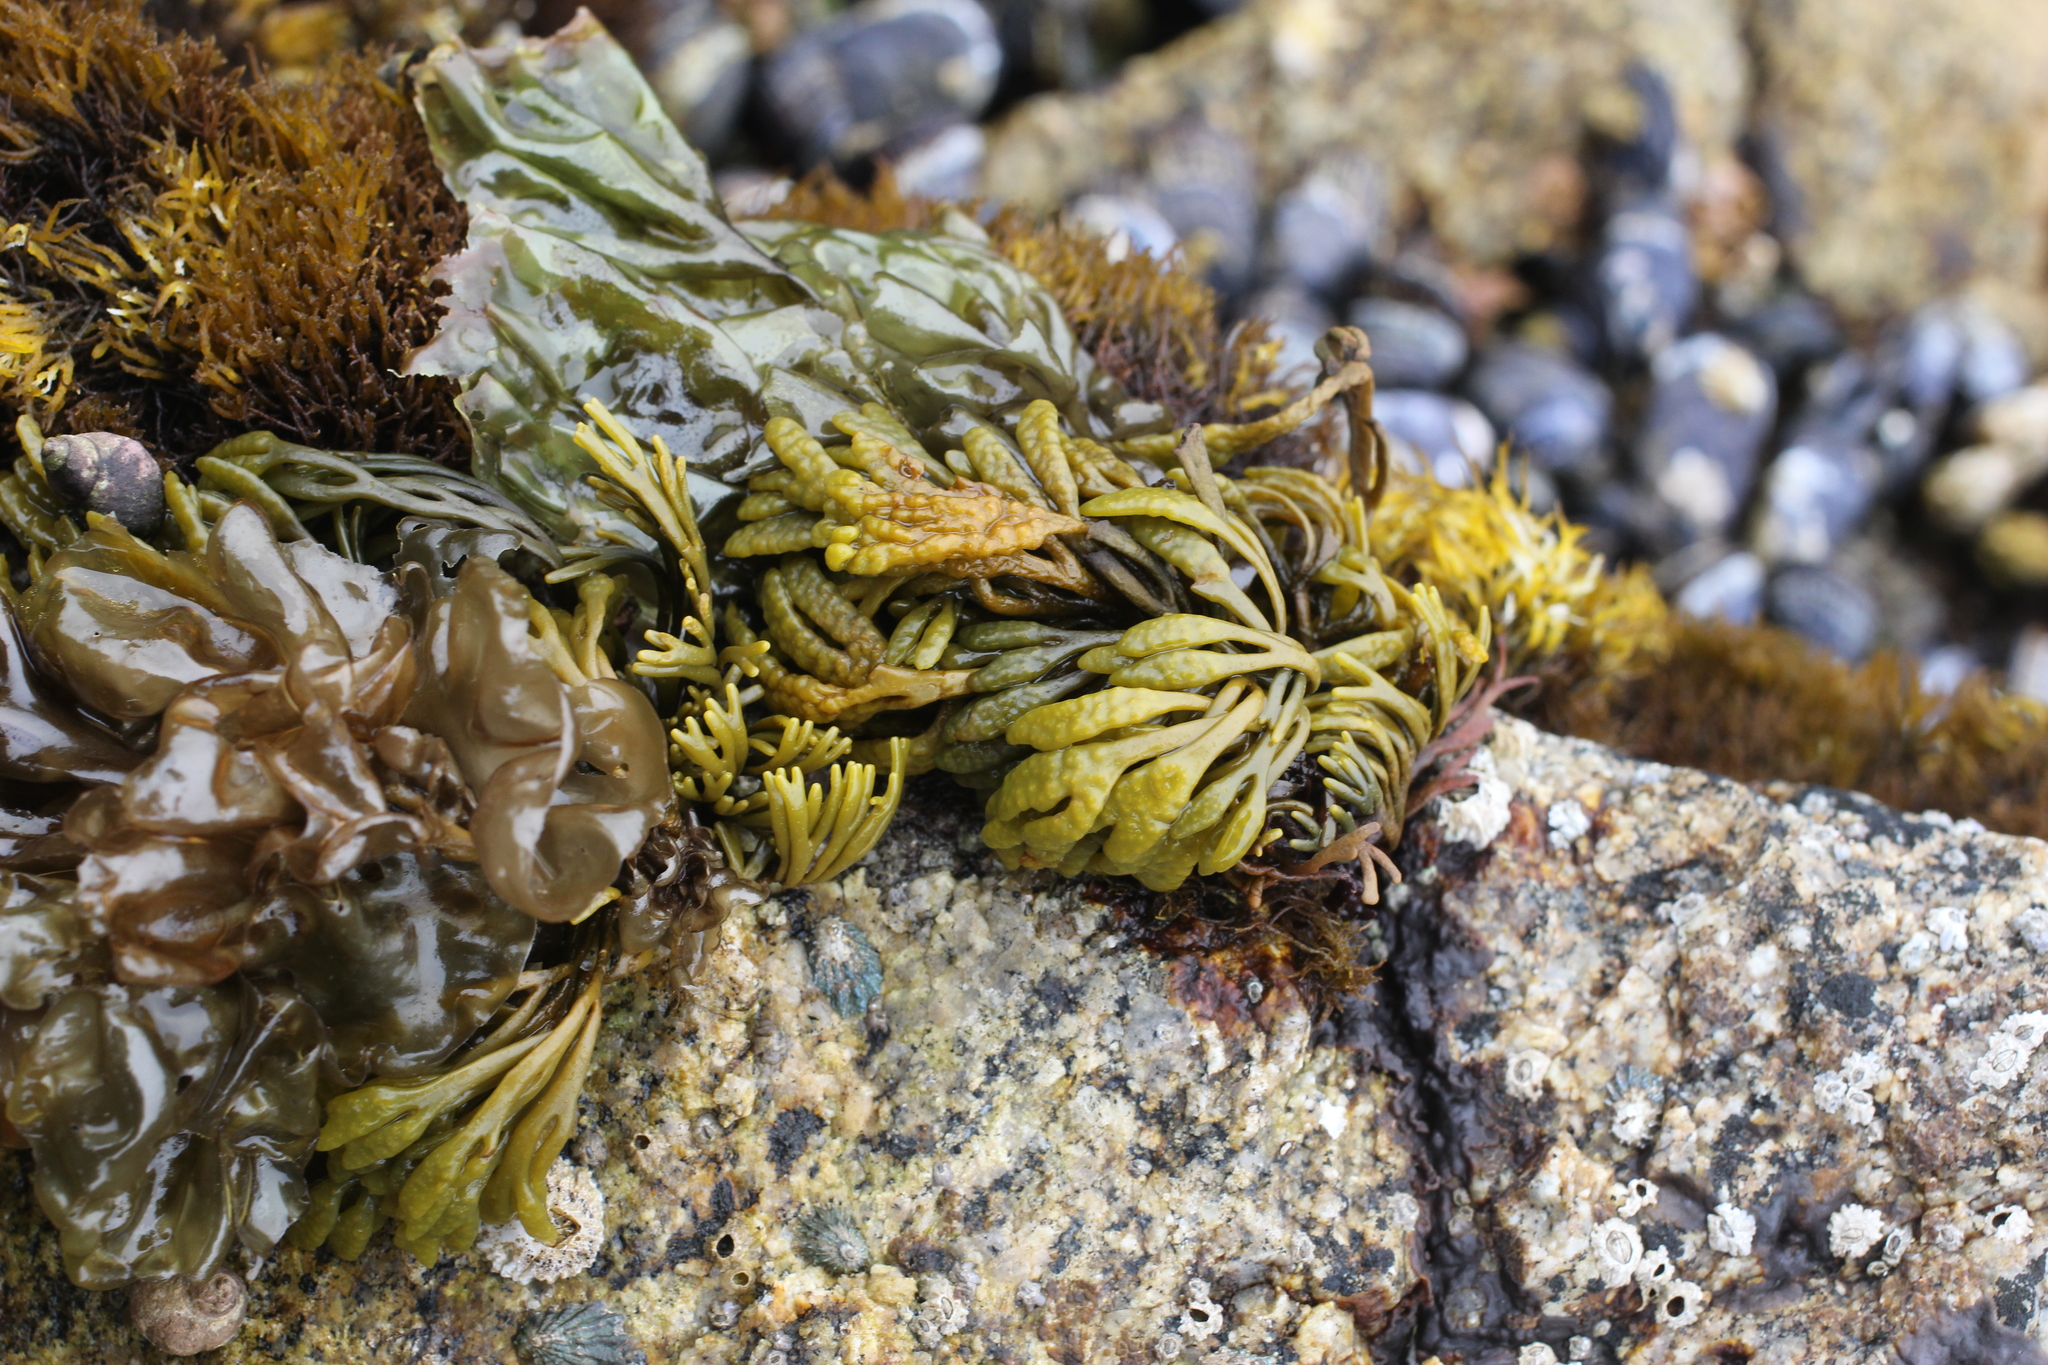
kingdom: Chromista
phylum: Ochrophyta
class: Phaeophyceae
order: Fucales
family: Fucaceae
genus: Pelvetiopsis
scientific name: Pelvetiopsis limitata
